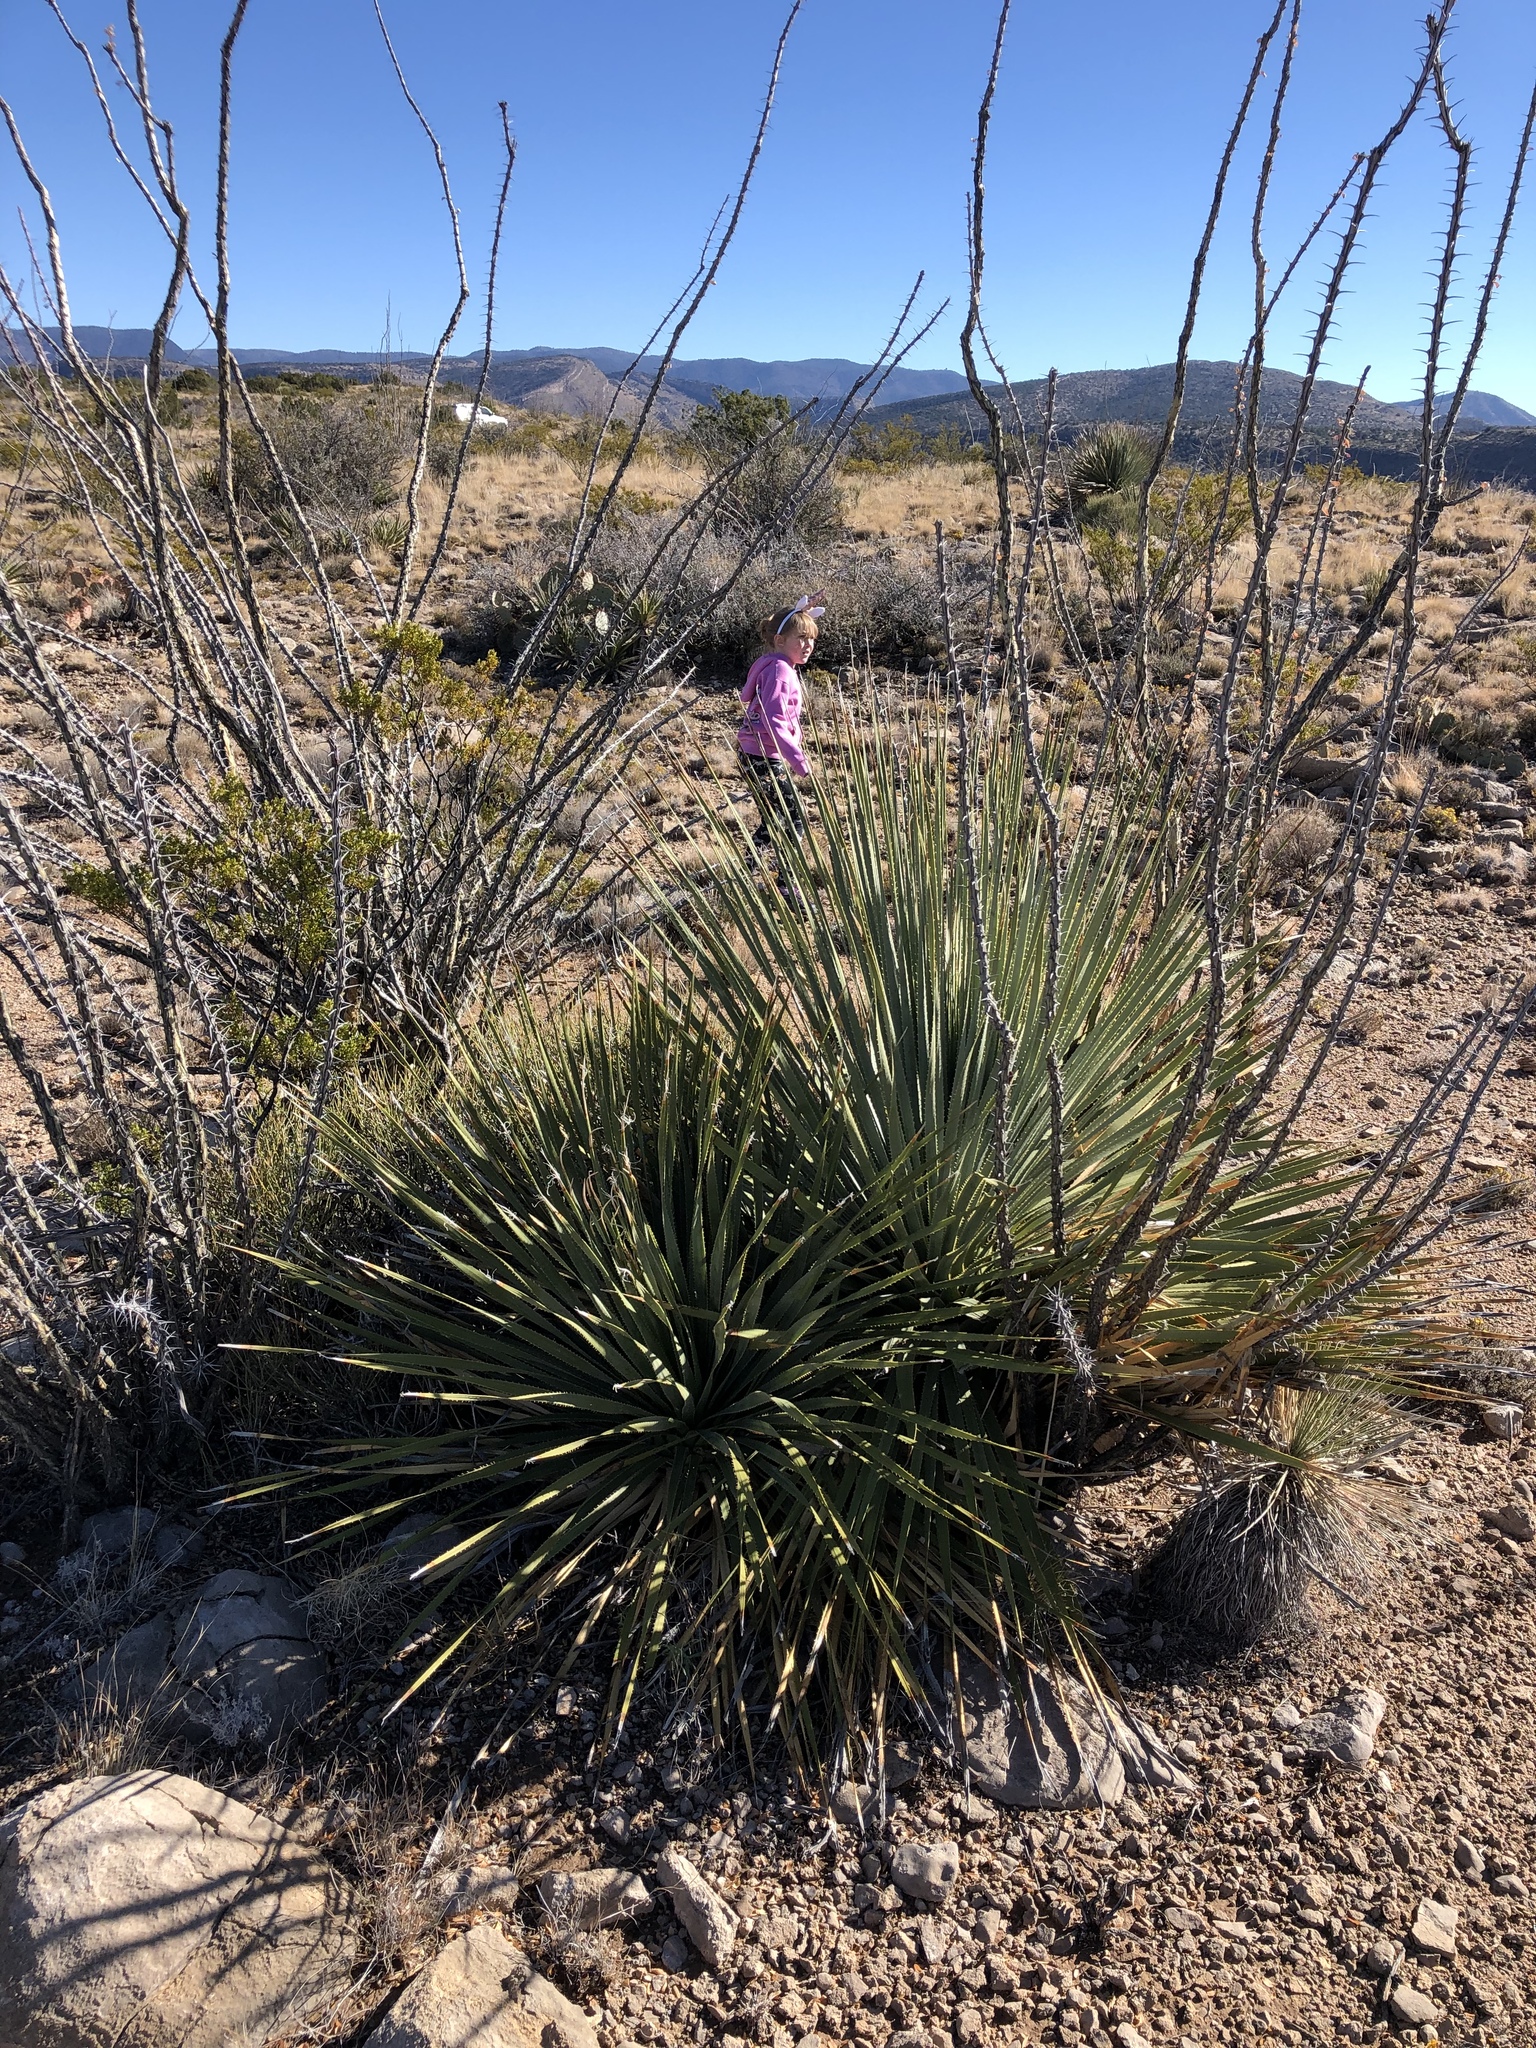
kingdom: Plantae
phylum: Tracheophyta
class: Liliopsida
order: Asparagales
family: Asparagaceae
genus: Yucca
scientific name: Yucca elata
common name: Palmella
